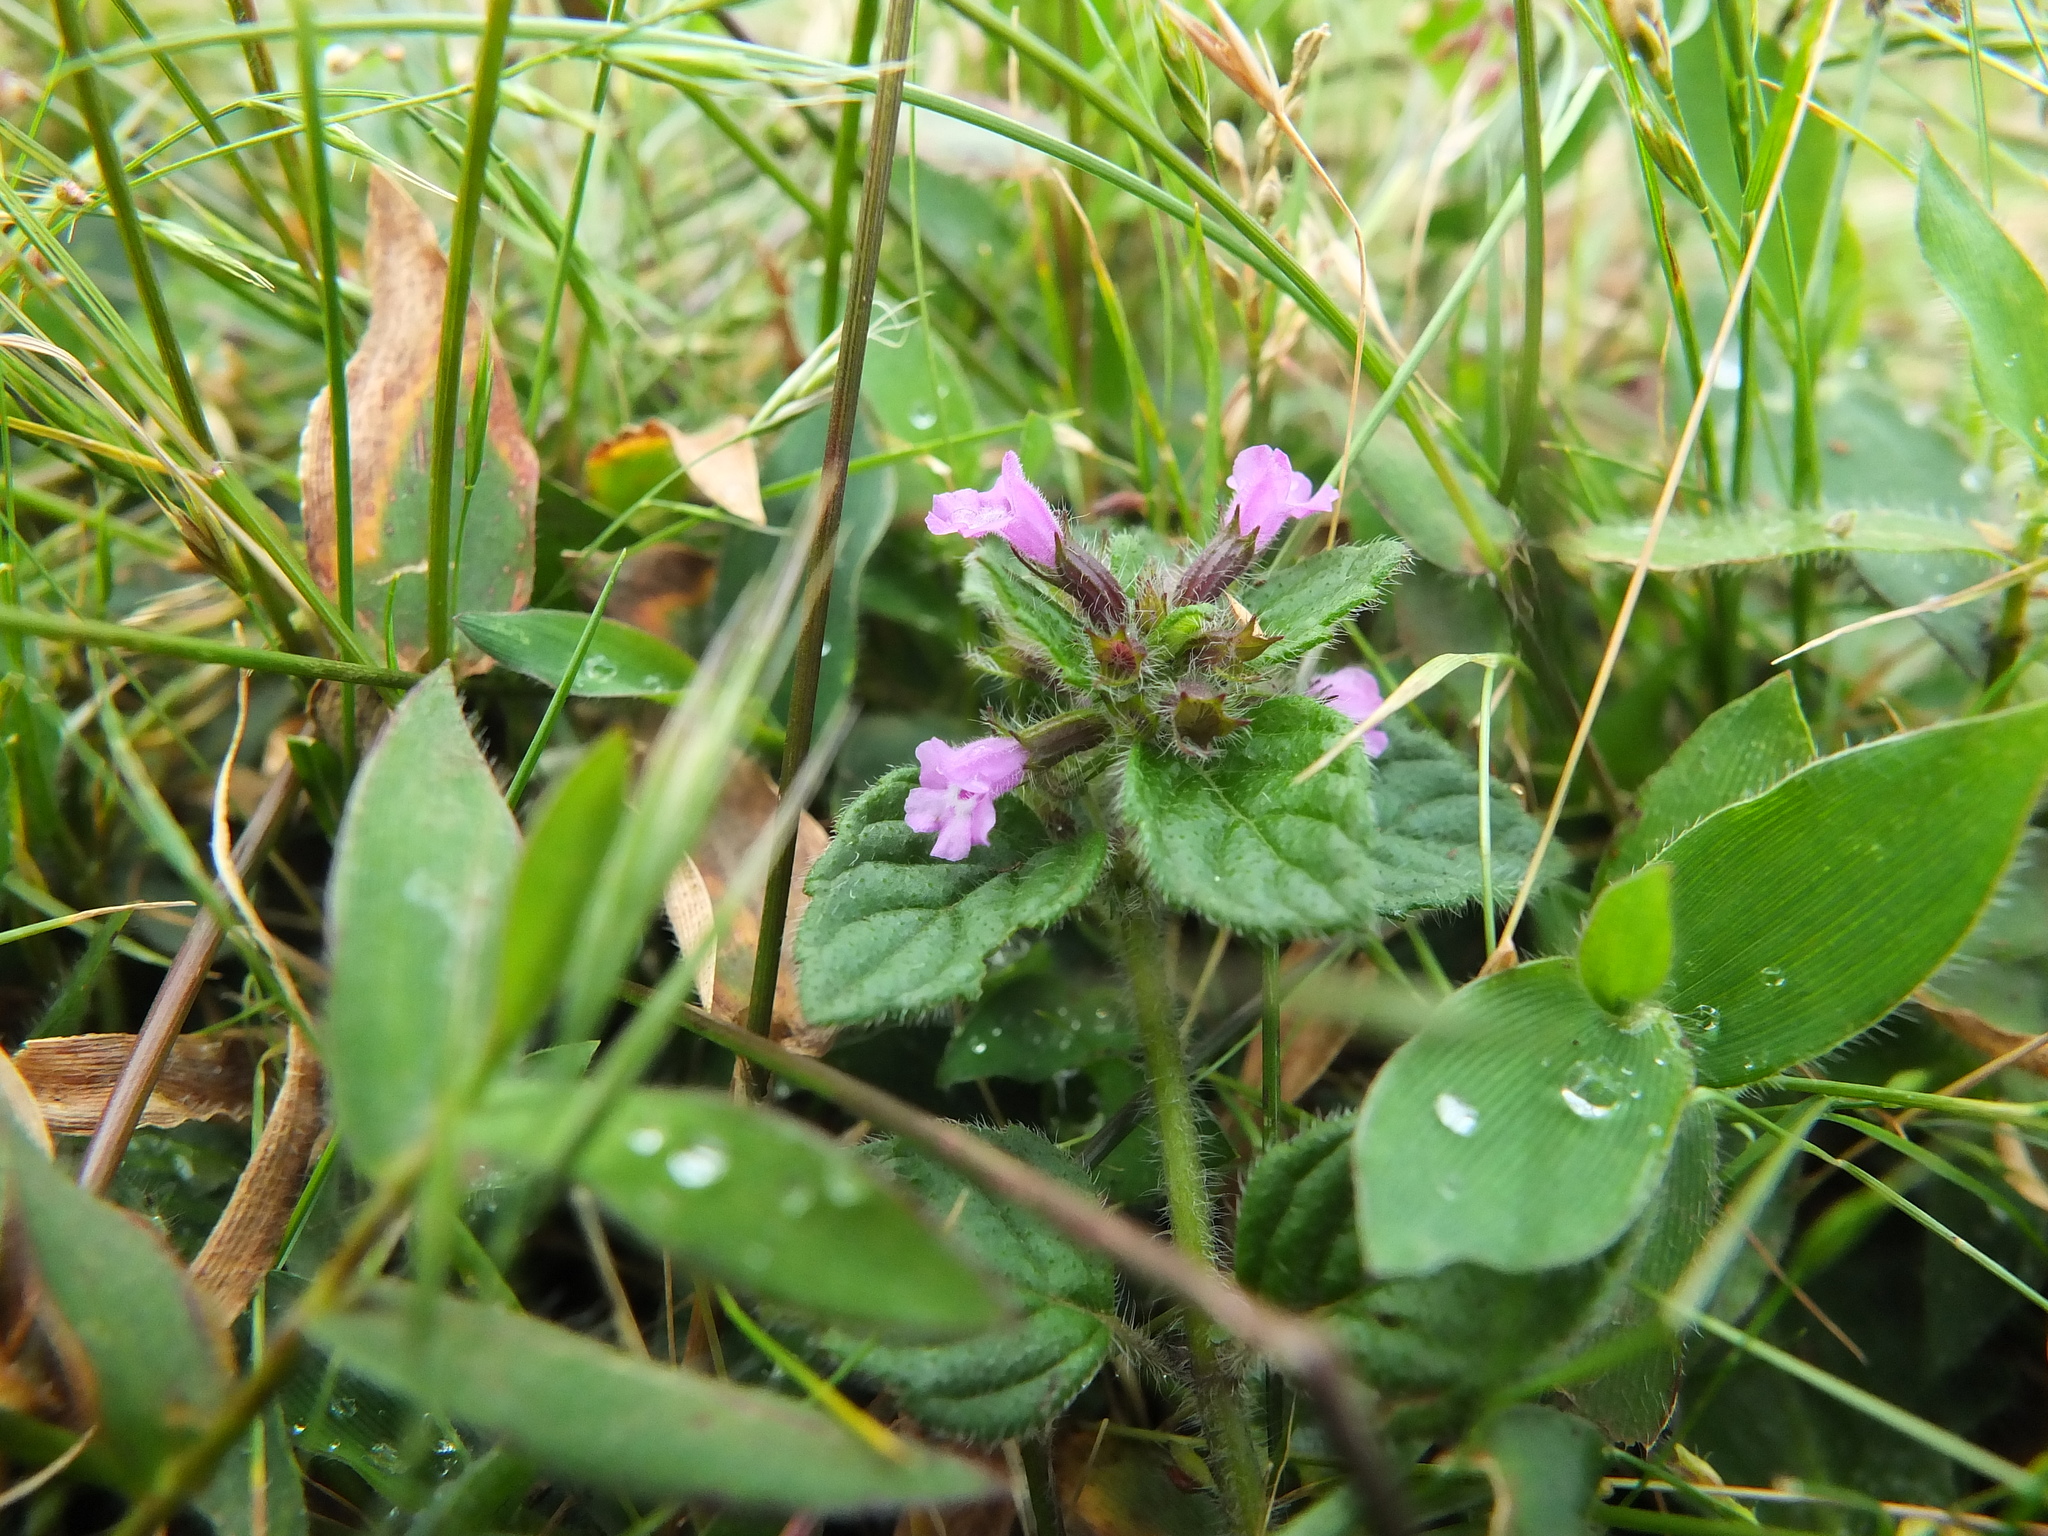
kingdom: Plantae
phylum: Tracheophyta
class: Magnoliopsida
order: Lamiales
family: Lamiaceae
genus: Clinopodium
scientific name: Clinopodium umbrosum
